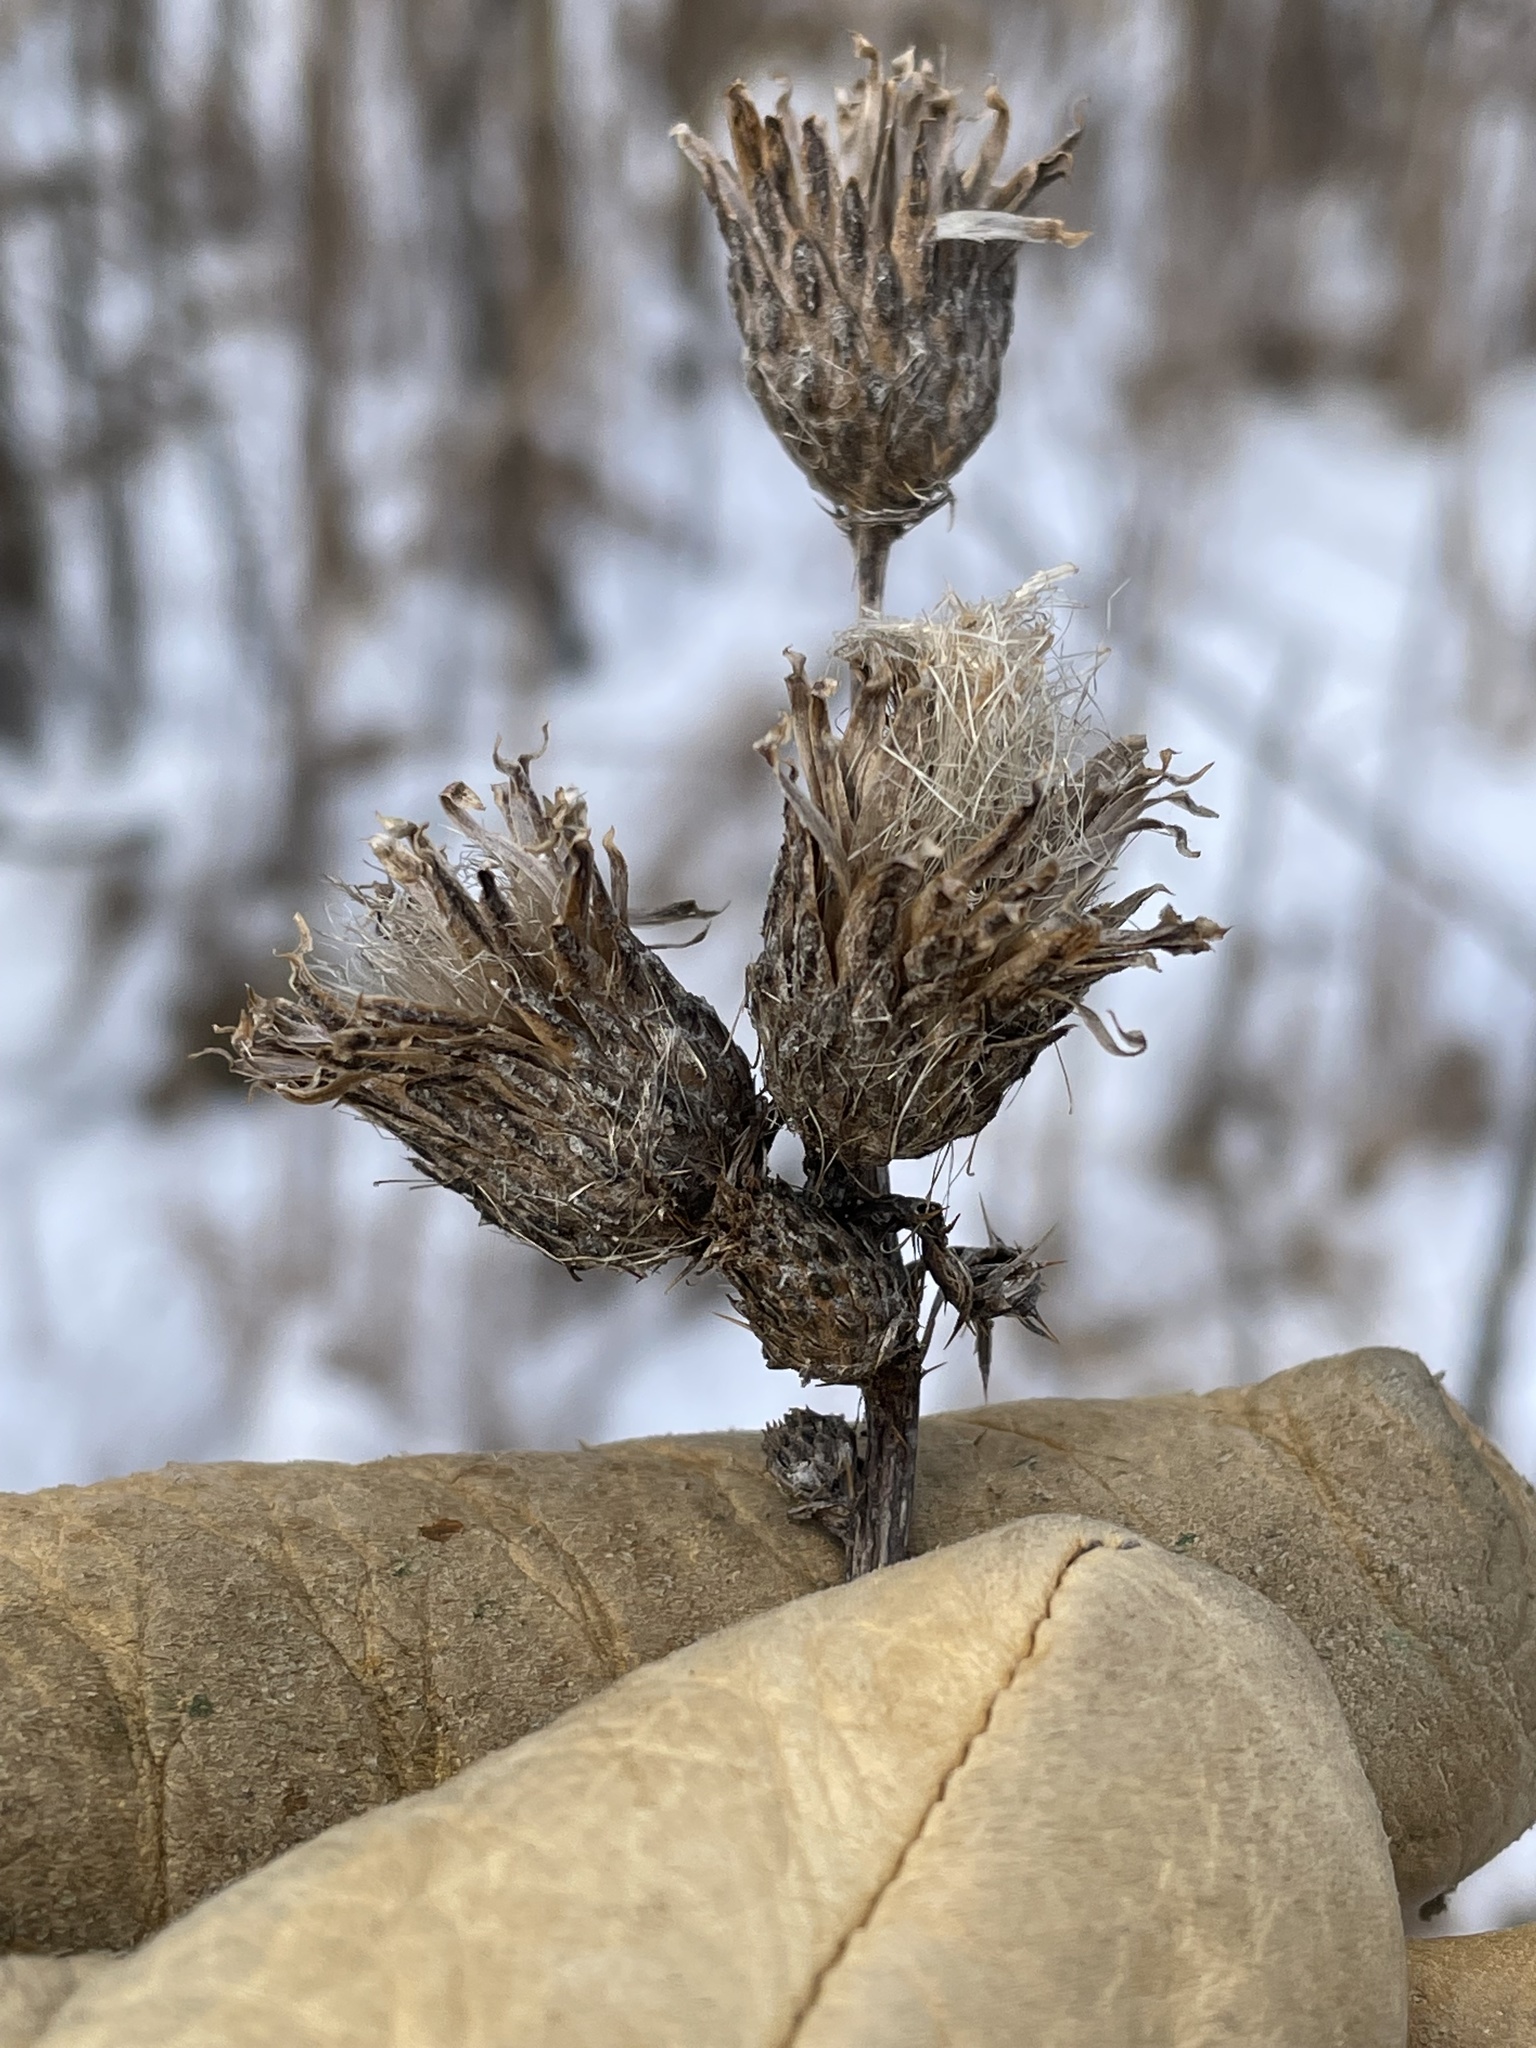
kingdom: Plantae
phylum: Tracheophyta
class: Magnoliopsida
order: Asterales
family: Asteraceae
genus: Cirsium
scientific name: Cirsium muticum
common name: Dunce-nettle
